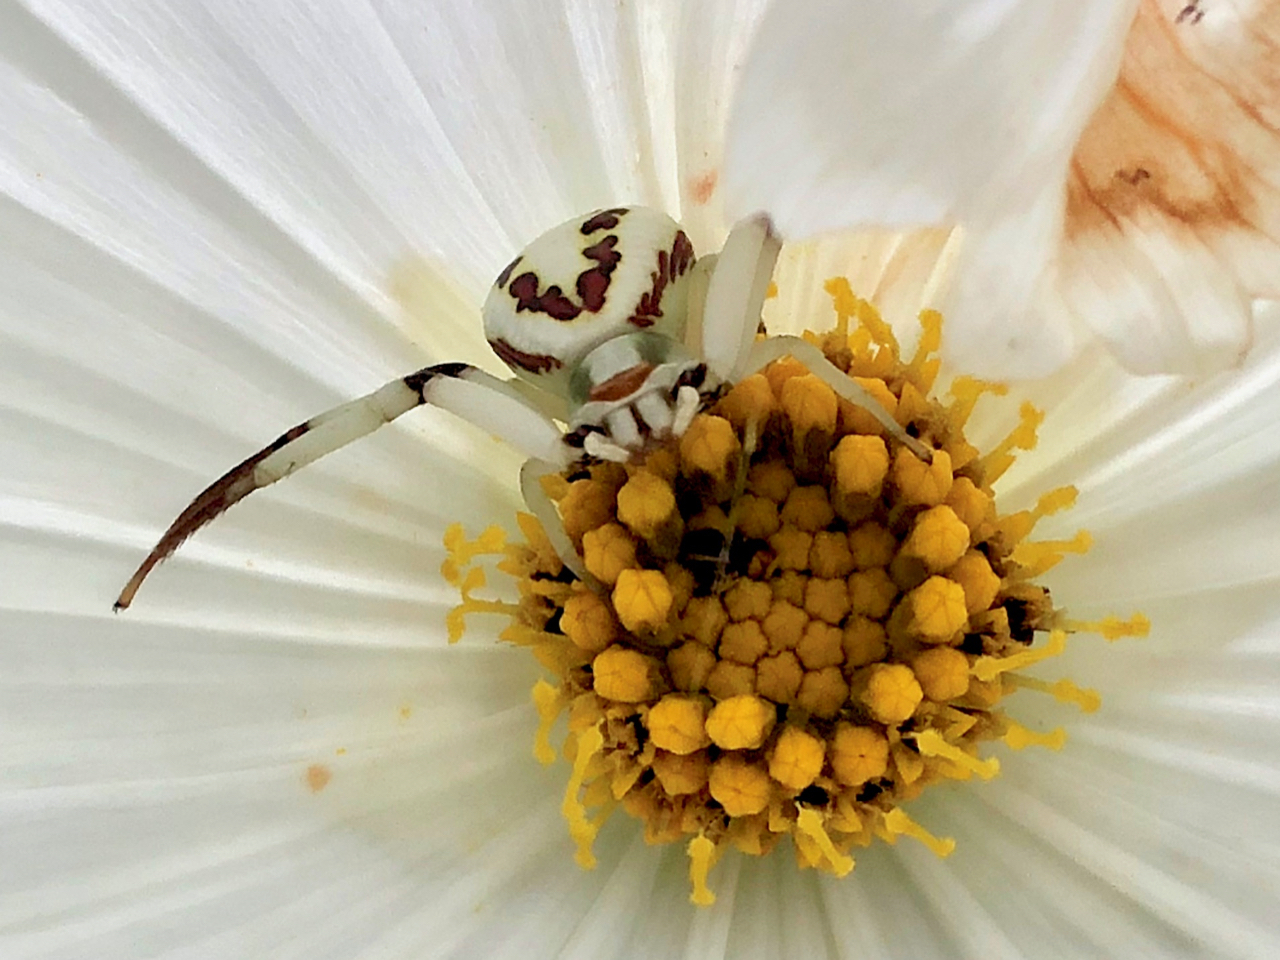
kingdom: Animalia
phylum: Arthropoda
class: Arachnida
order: Araneae
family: Thomisidae
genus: Misumenoides
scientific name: Misumenoides formosipes
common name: White-banded crab spider
